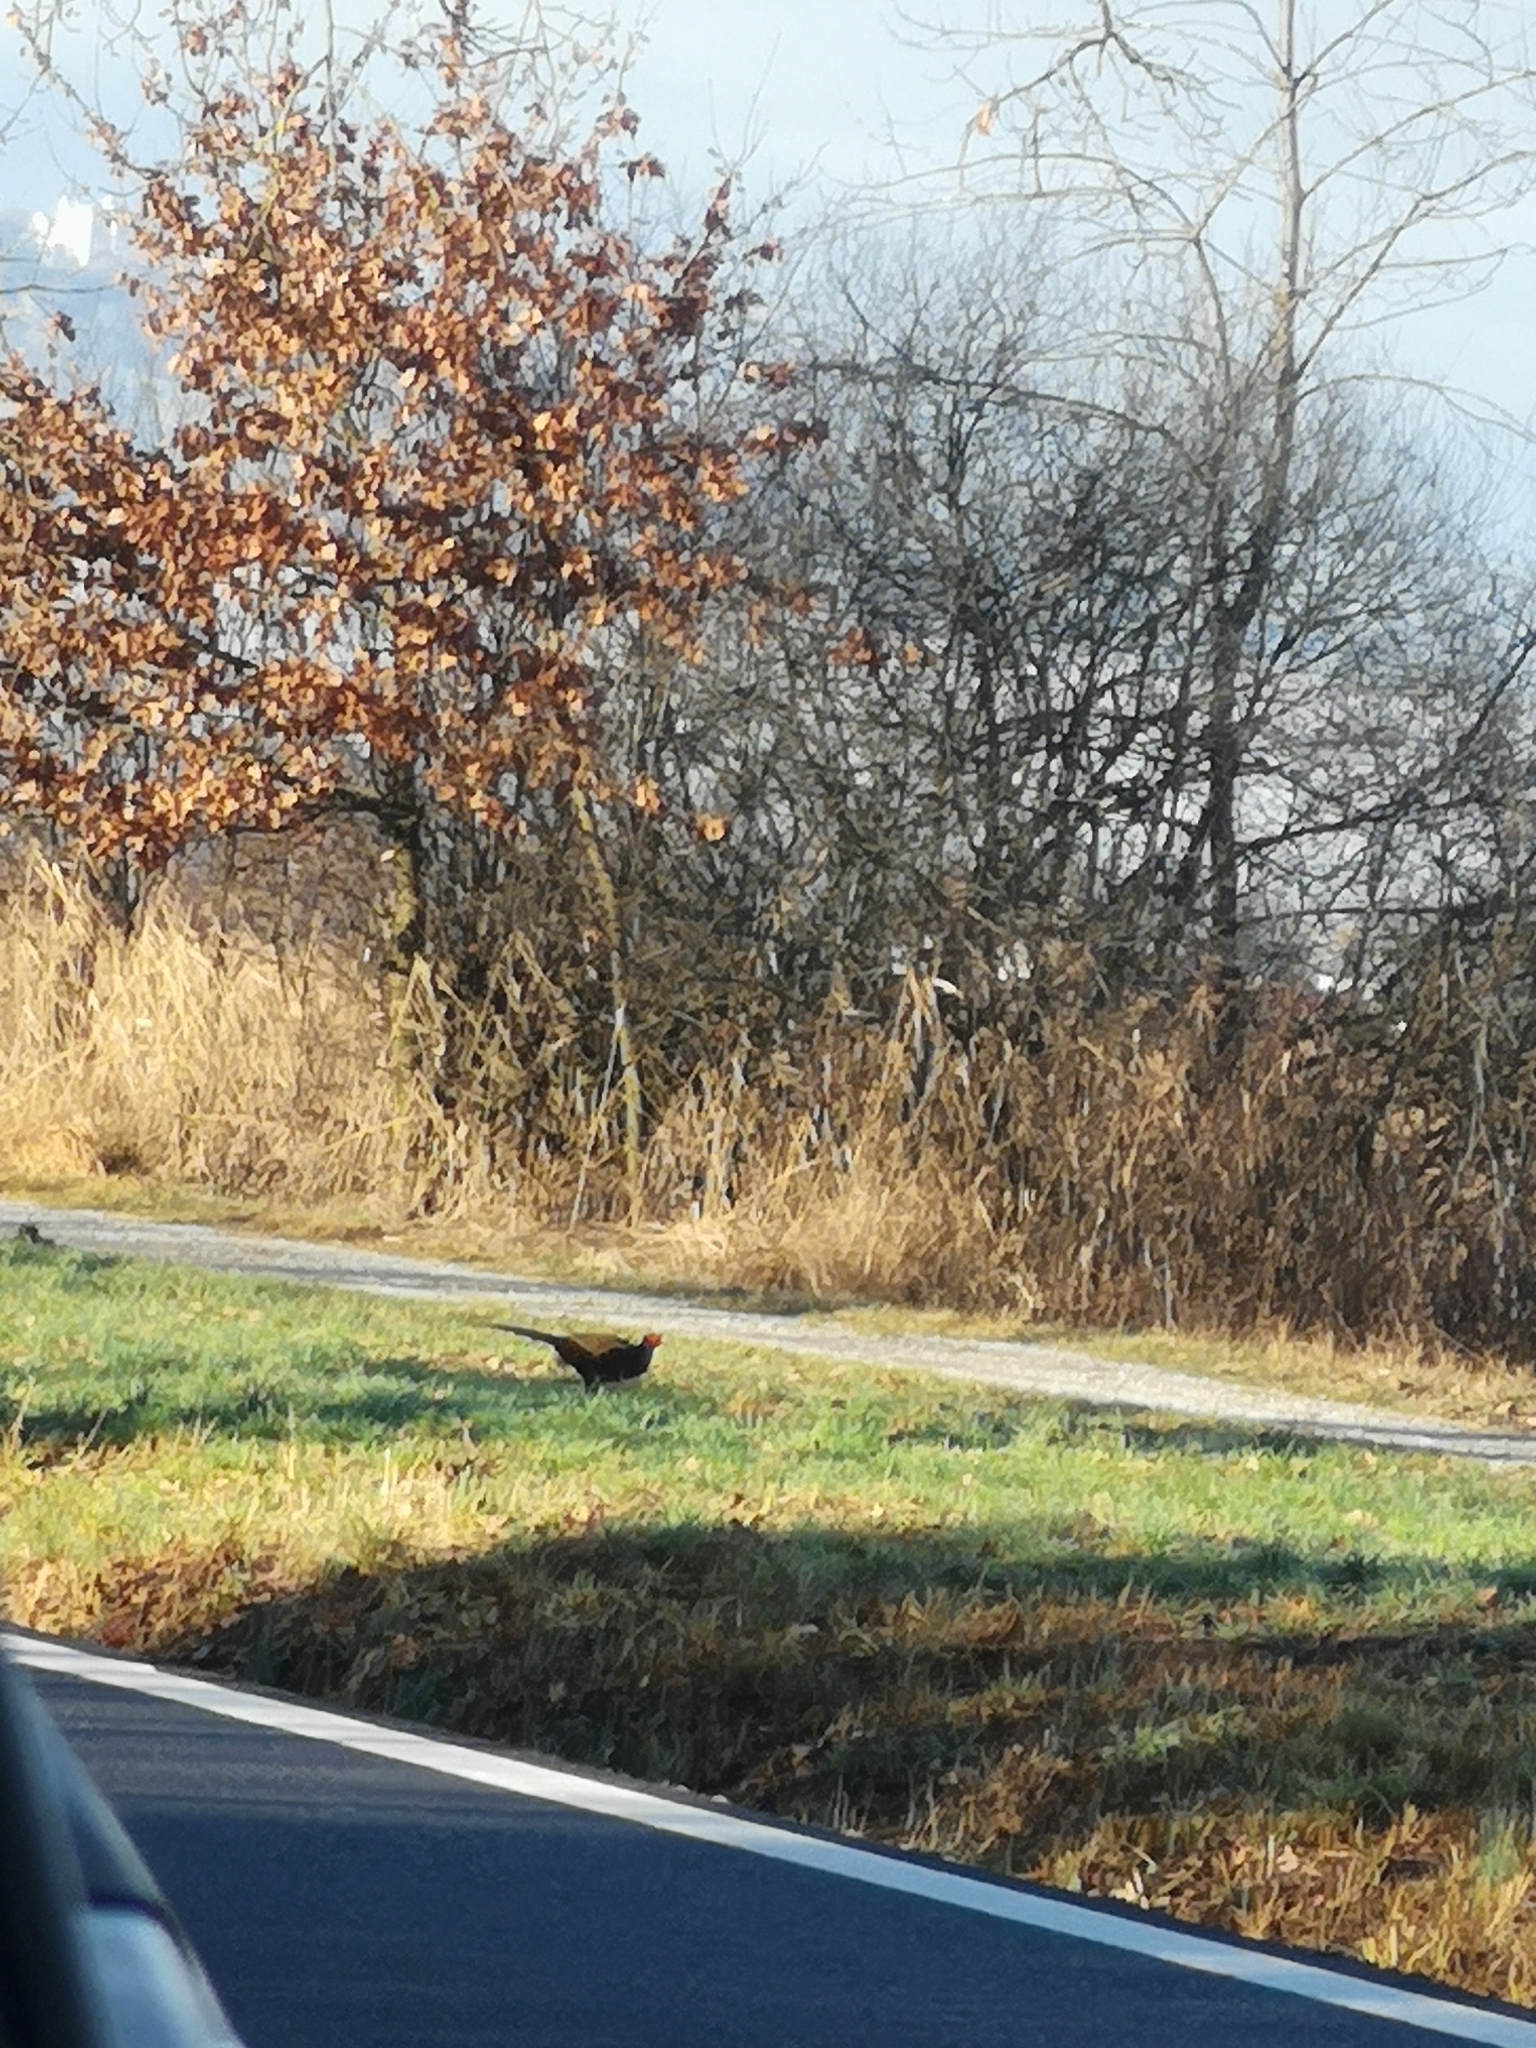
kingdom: Animalia
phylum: Chordata
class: Aves
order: Galliformes
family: Phasianidae
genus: Phasianus
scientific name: Phasianus colchicus
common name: Common pheasant
